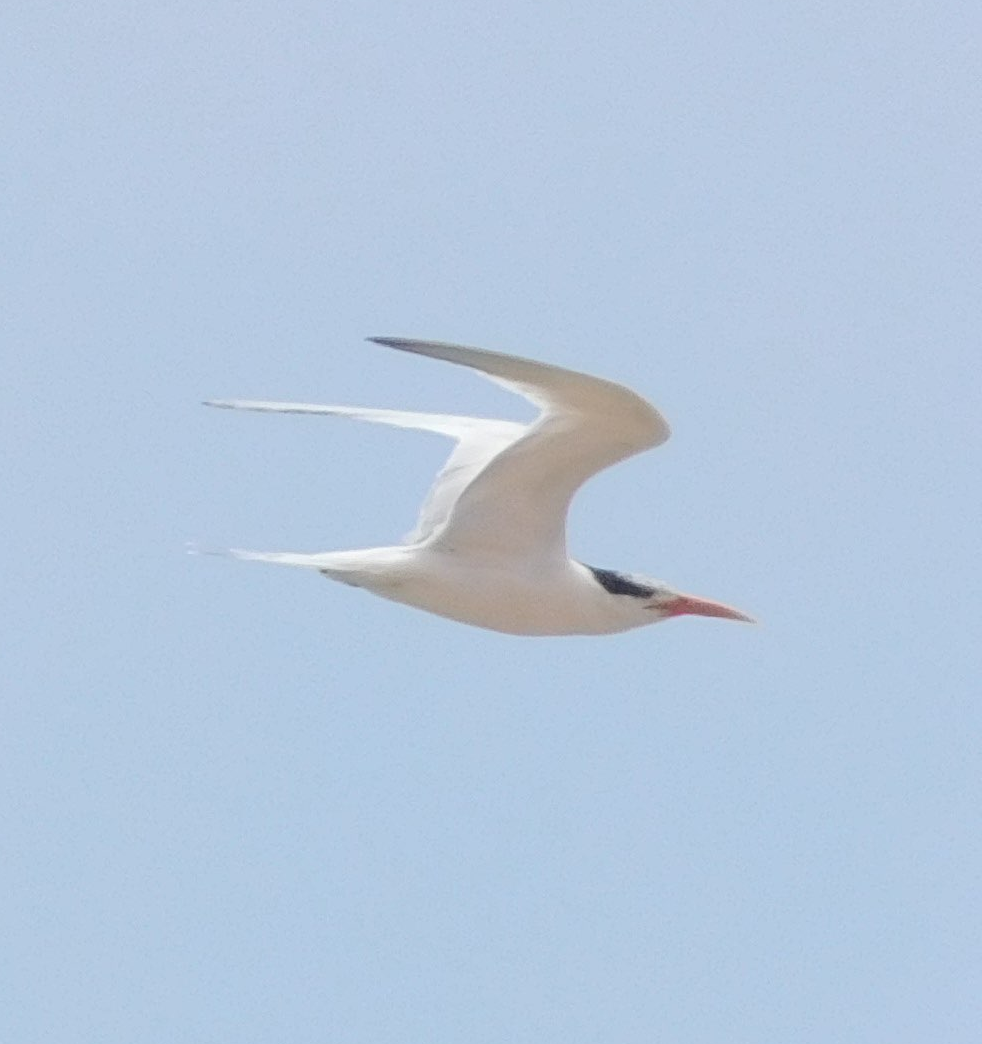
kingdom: Animalia
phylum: Chordata
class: Aves
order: Charadriiformes
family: Laridae
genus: Thalasseus
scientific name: Thalasseus elegans
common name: Elegant tern
